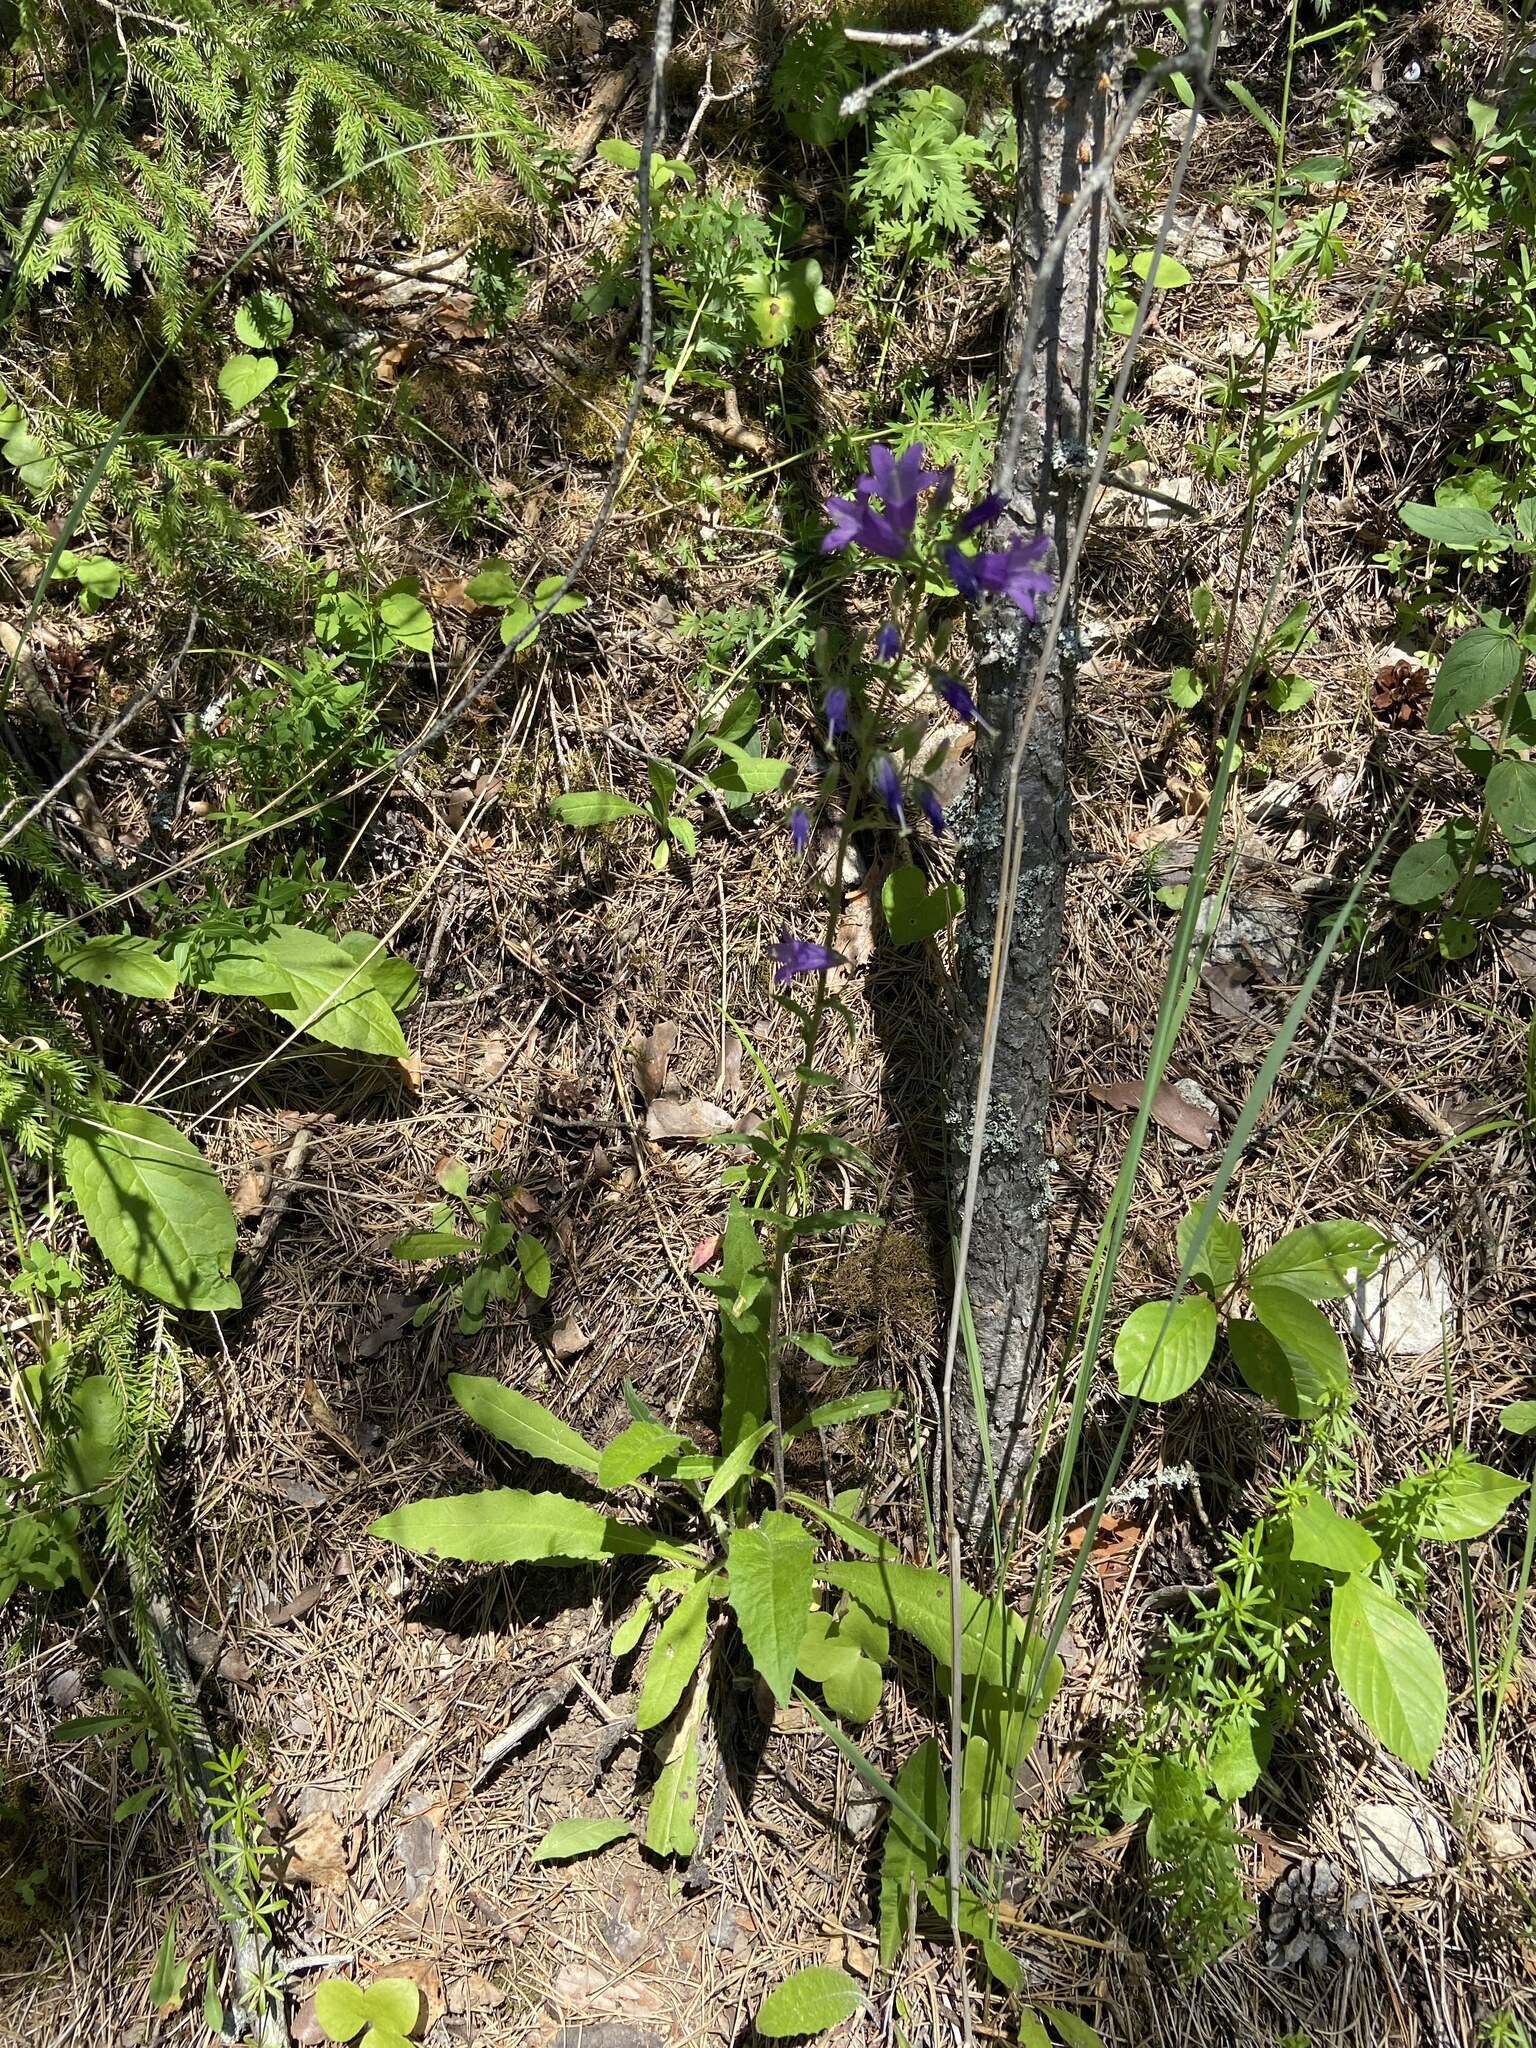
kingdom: Plantae
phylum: Tracheophyta
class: Magnoliopsida
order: Asterales
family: Campanulaceae
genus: Campanula
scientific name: Campanula sibirica
